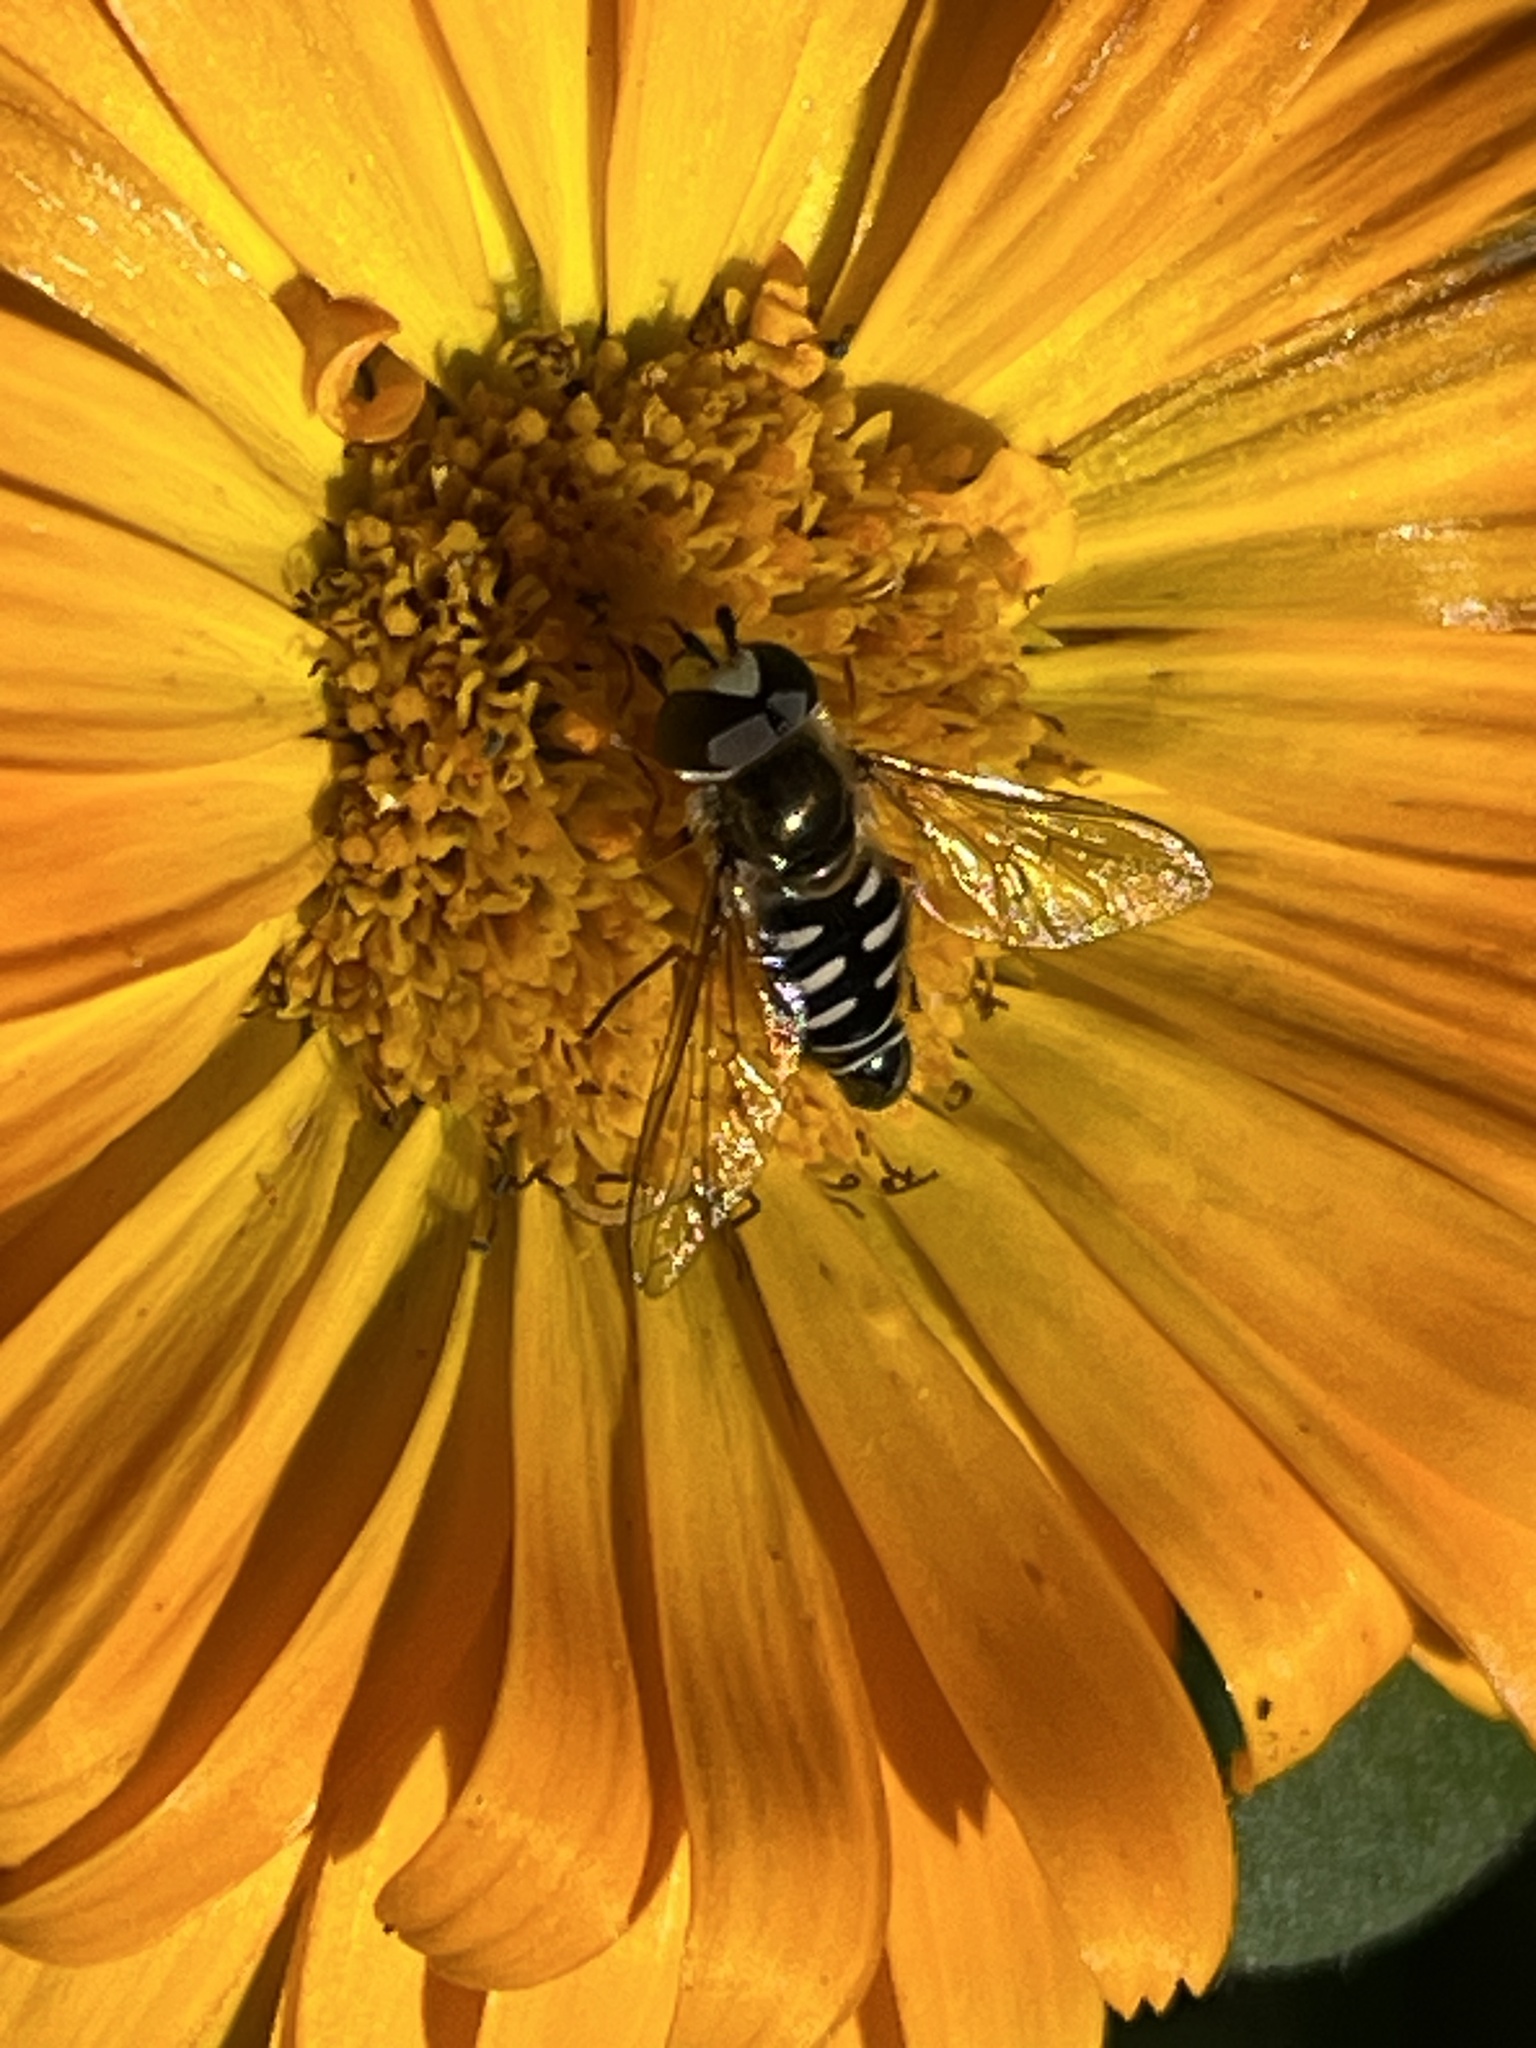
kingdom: Animalia
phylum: Arthropoda
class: Insecta
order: Diptera
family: Syrphidae
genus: Eupeodes
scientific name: Eupeodes volucris
